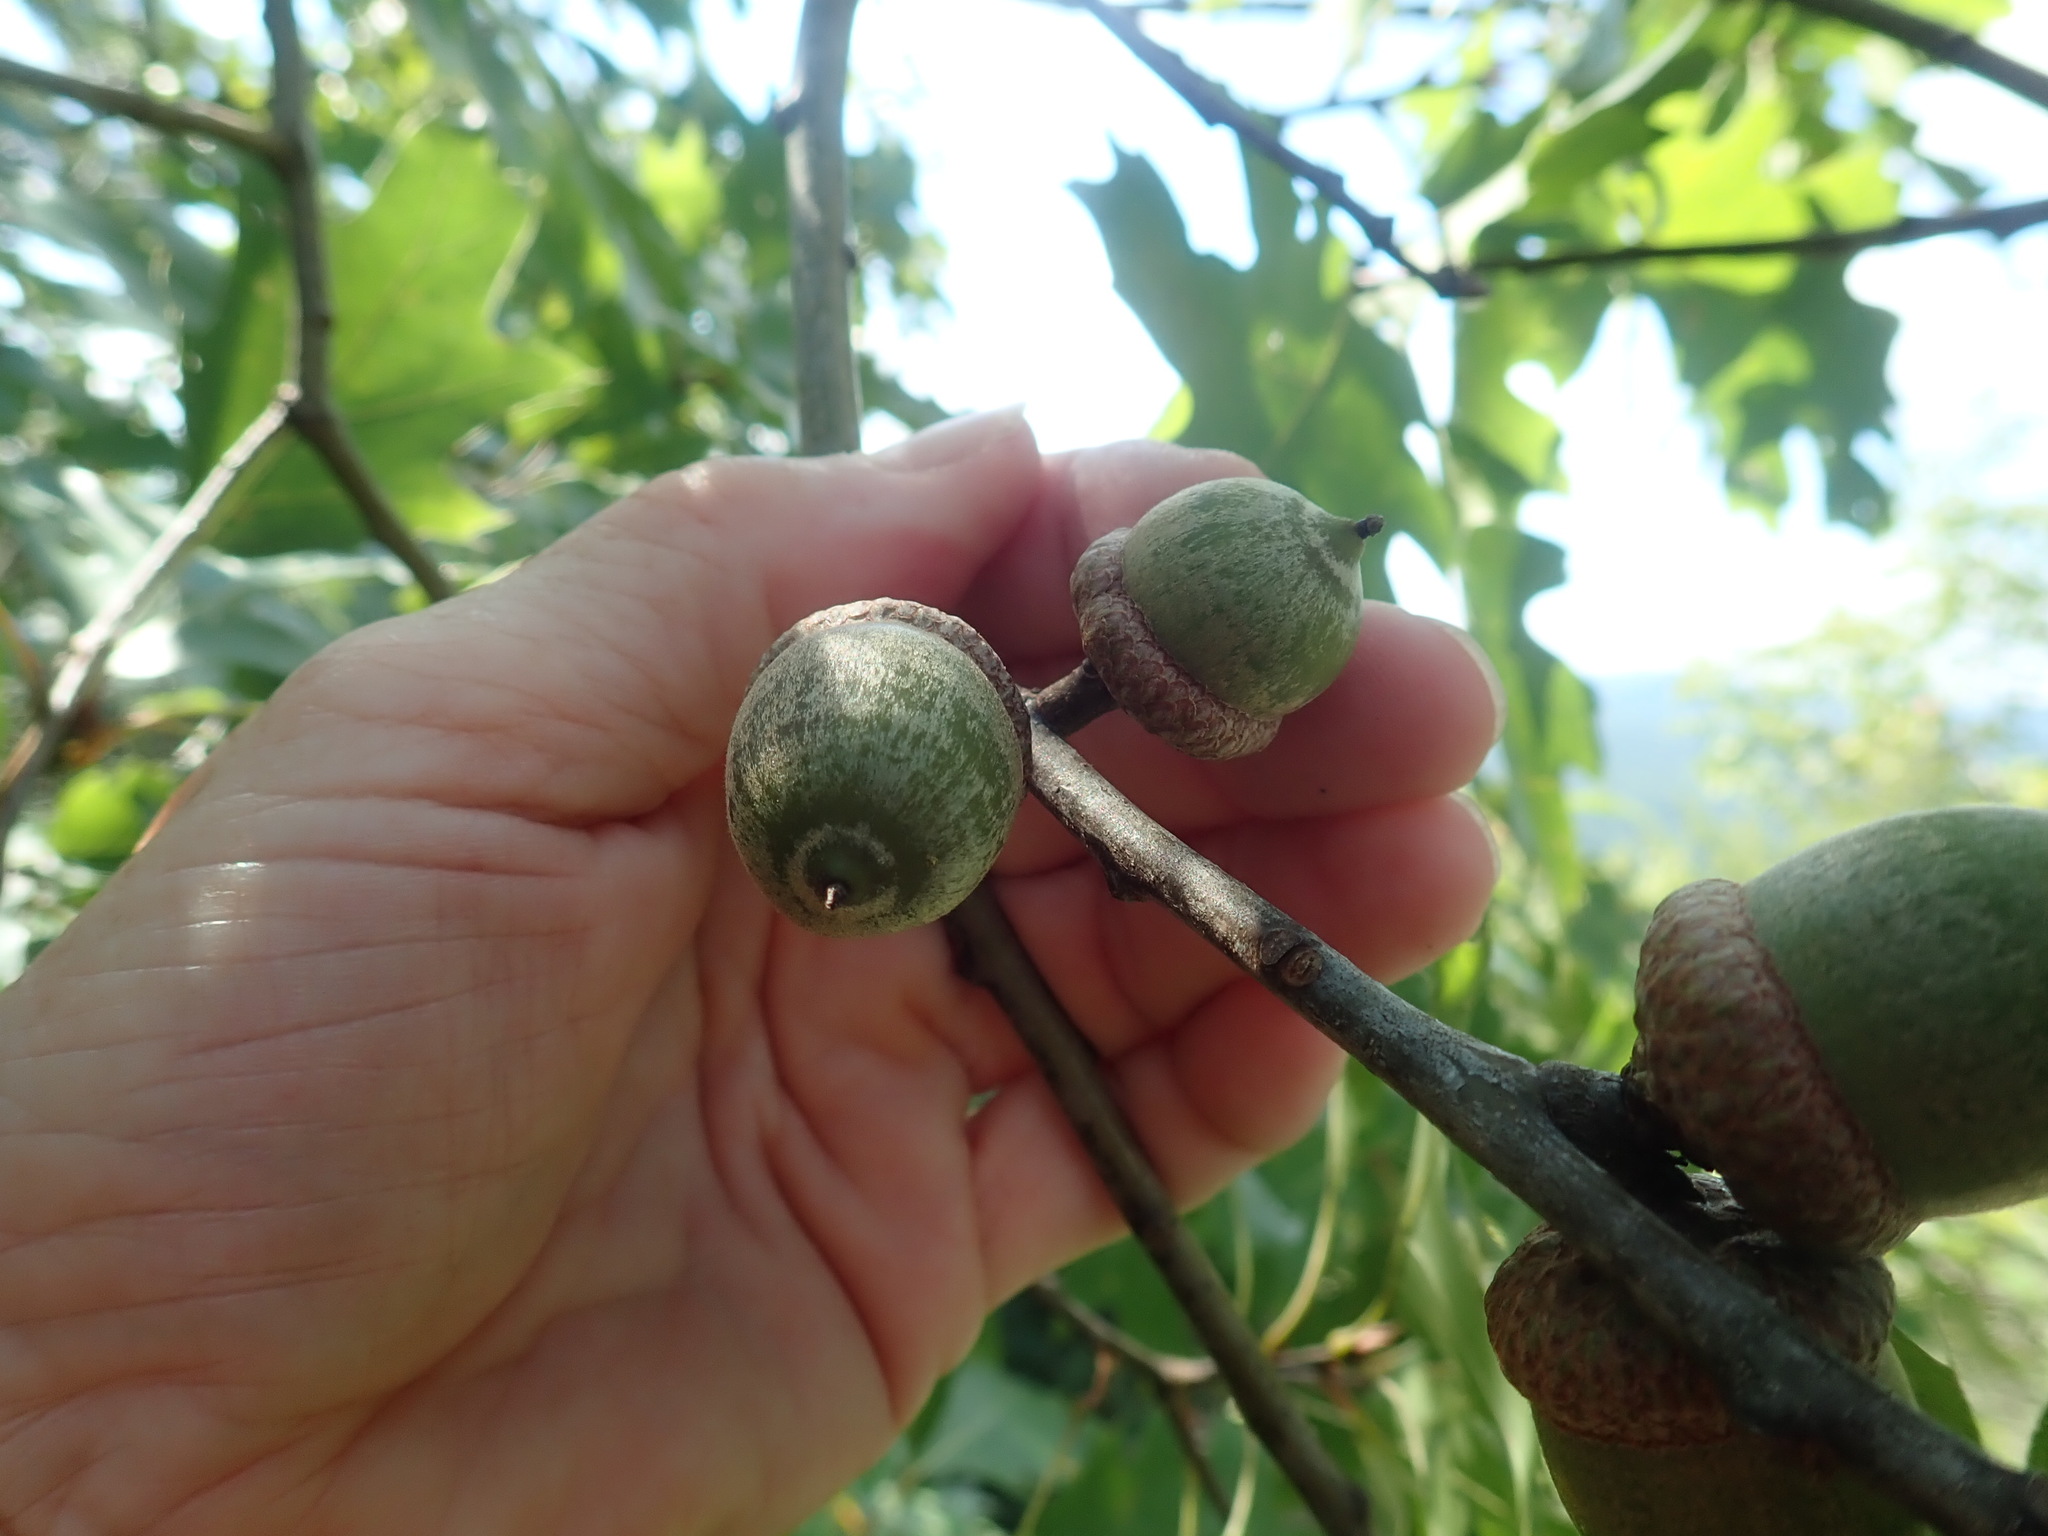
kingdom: Plantae
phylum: Tracheophyta
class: Magnoliopsida
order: Fagales
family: Fagaceae
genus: Quercus
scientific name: Quercus rubra
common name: Red oak
